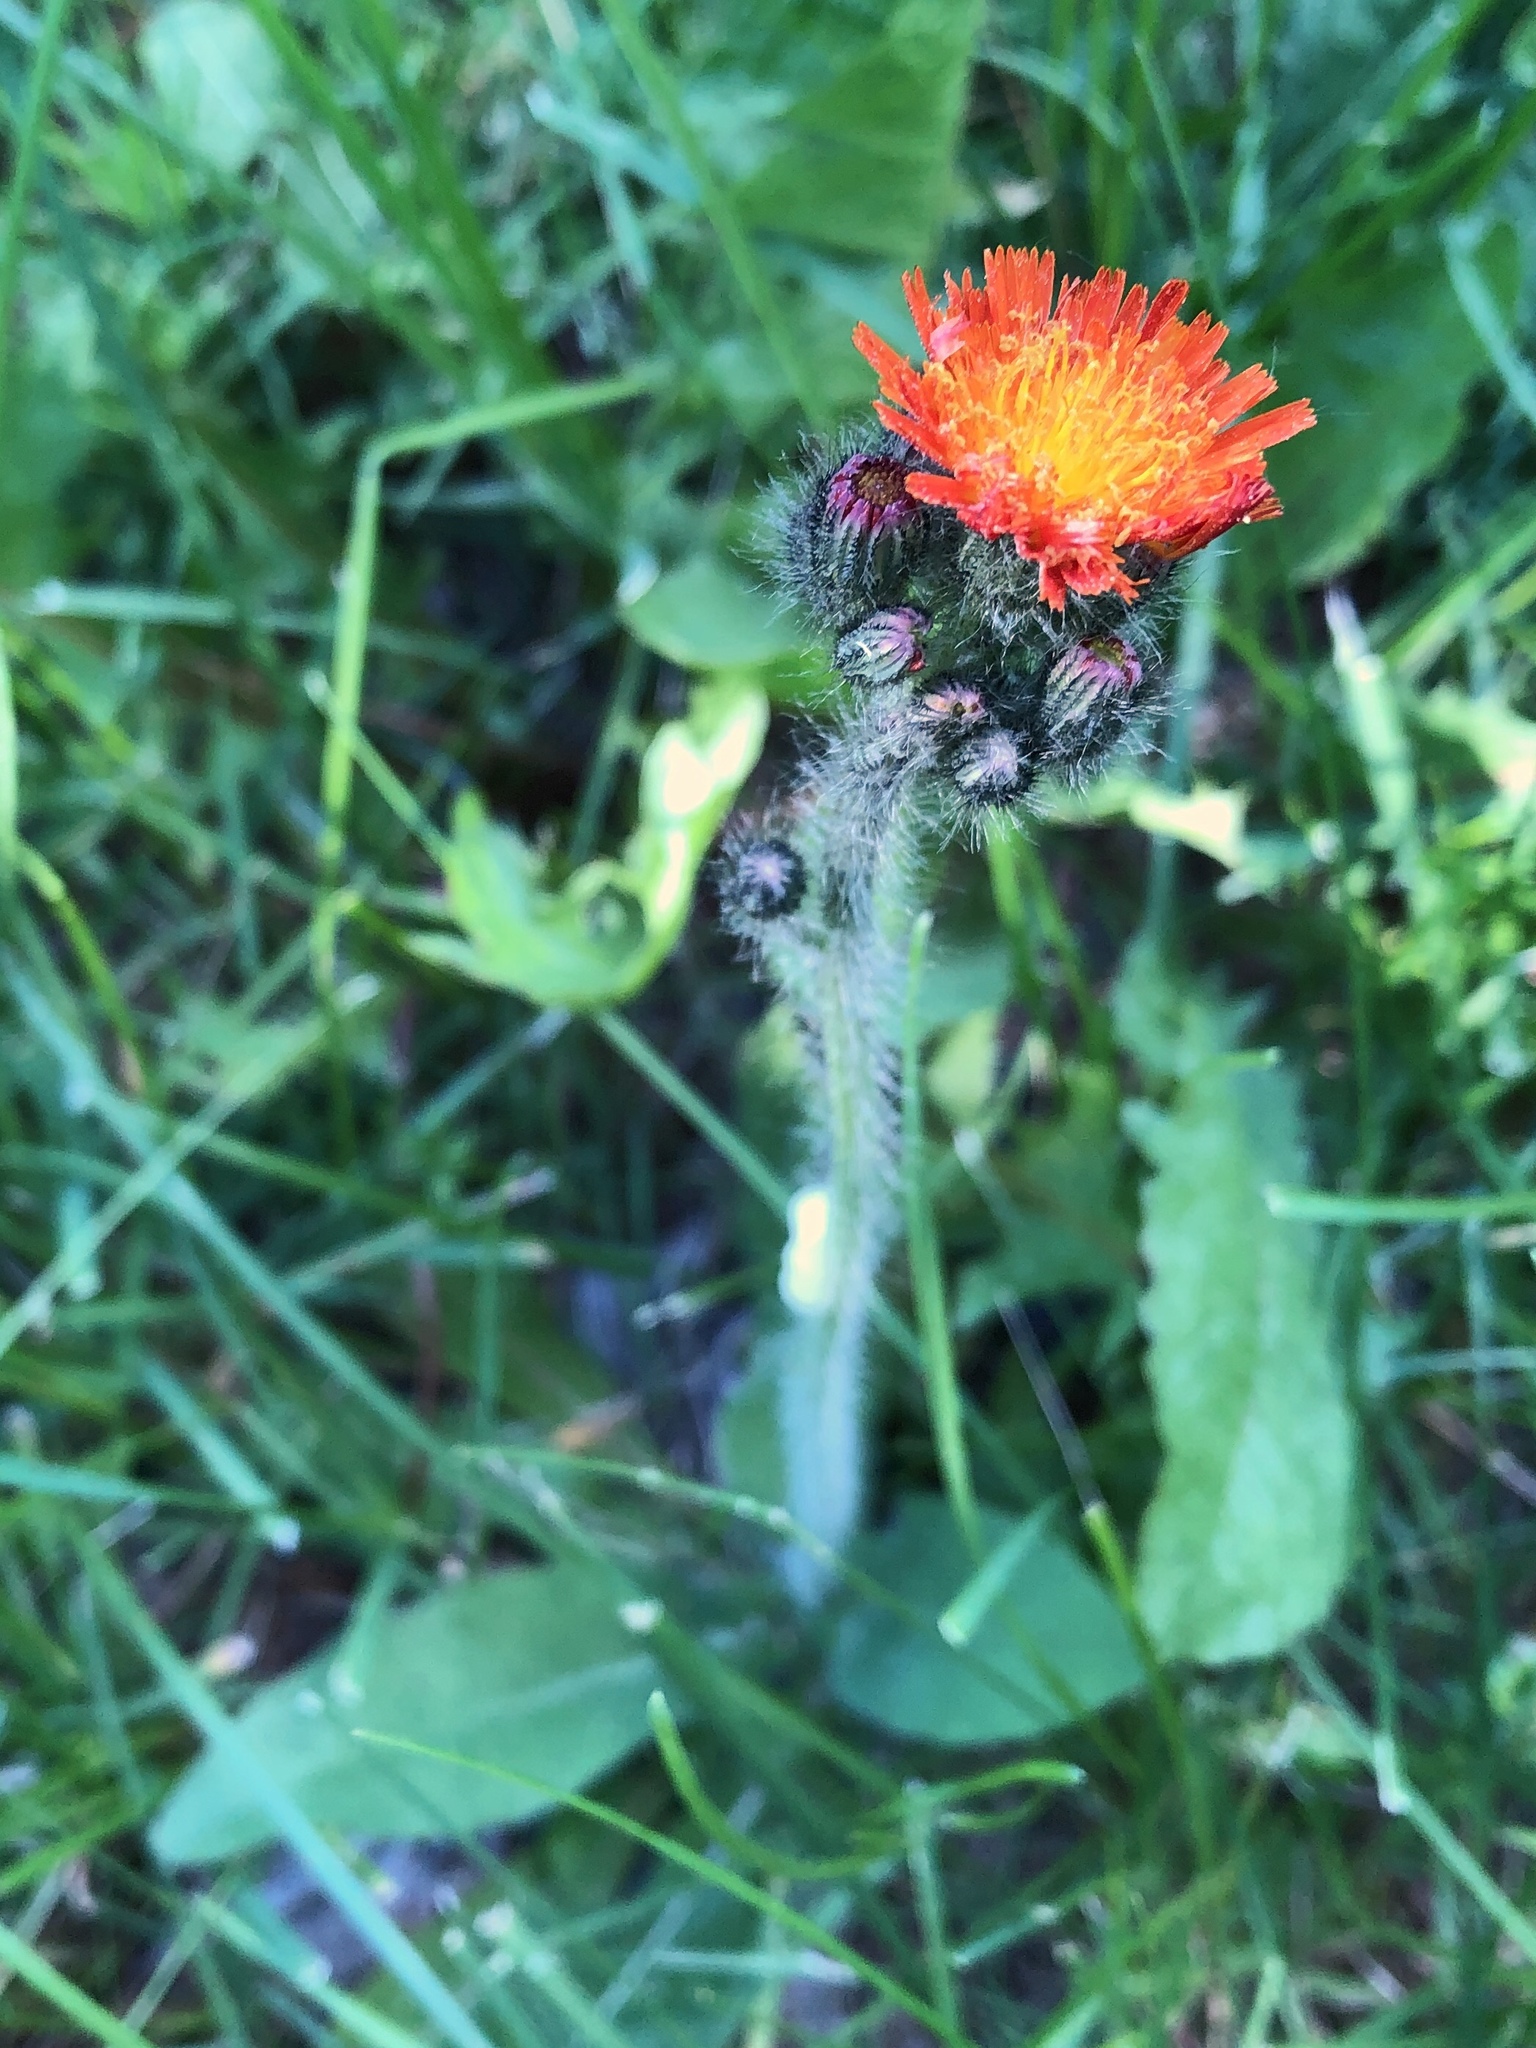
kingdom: Plantae
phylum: Tracheophyta
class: Magnoliopsida
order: Asterales
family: Asteraceae
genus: Pilosella
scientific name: Pilosella aurantiaca
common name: Fox-and-cubs
